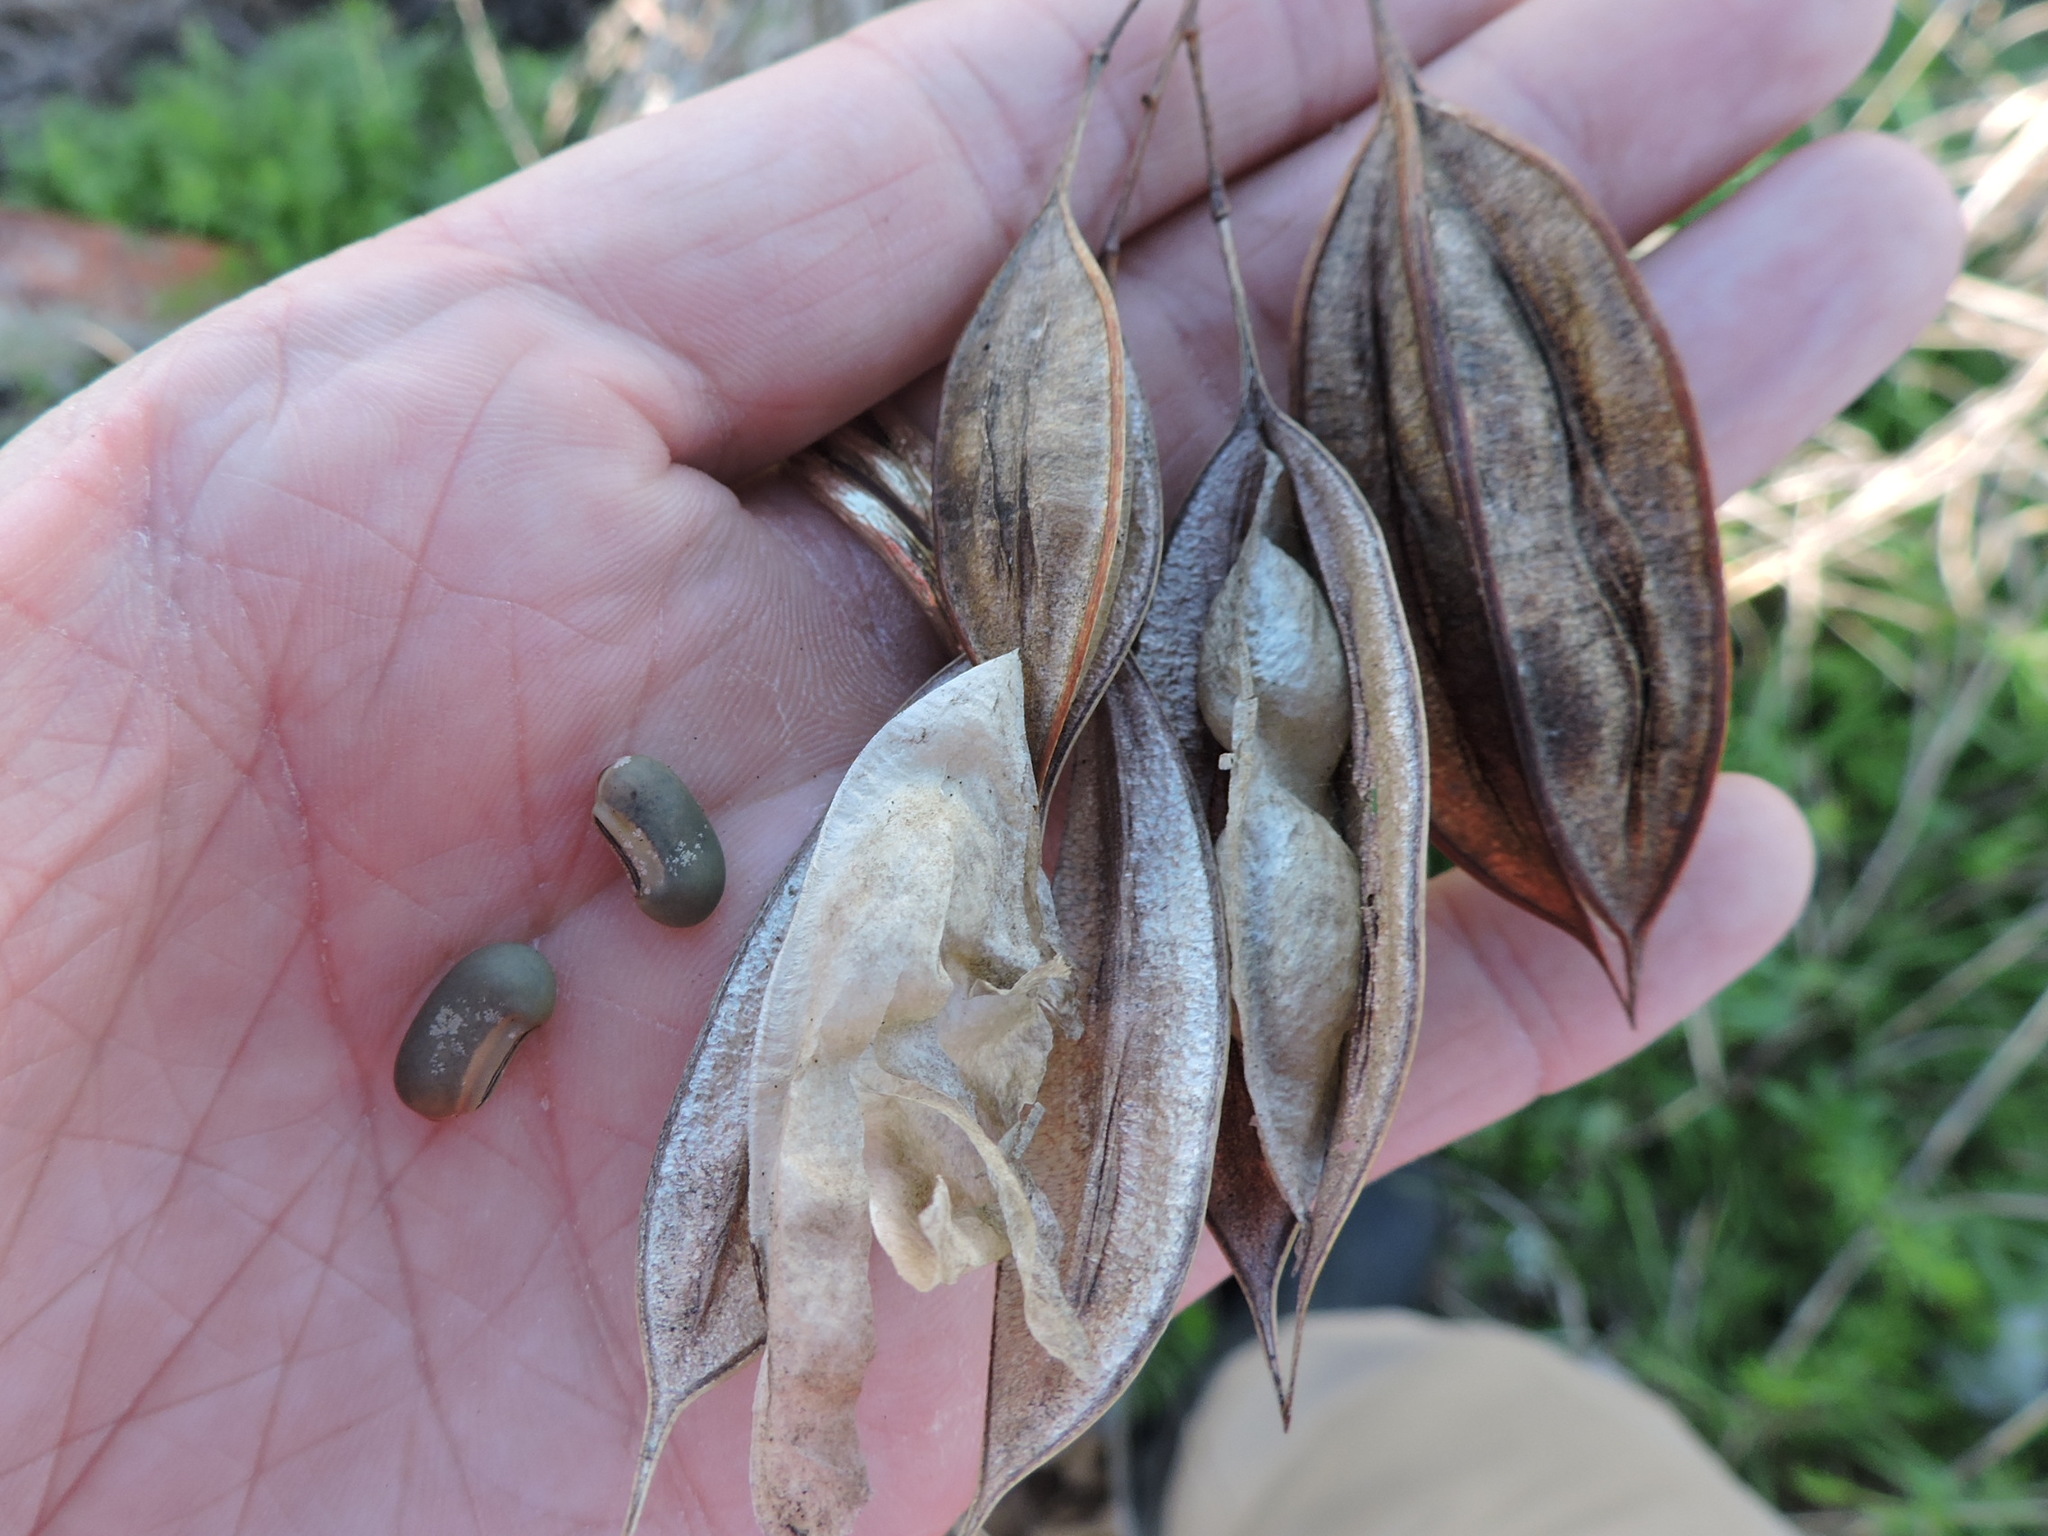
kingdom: Plantae
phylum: Tracheophyta
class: Magnoliopsida
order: Fabales
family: Fabaceae
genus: Sesbania
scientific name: Sesbania vesicaria
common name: Bagpod
